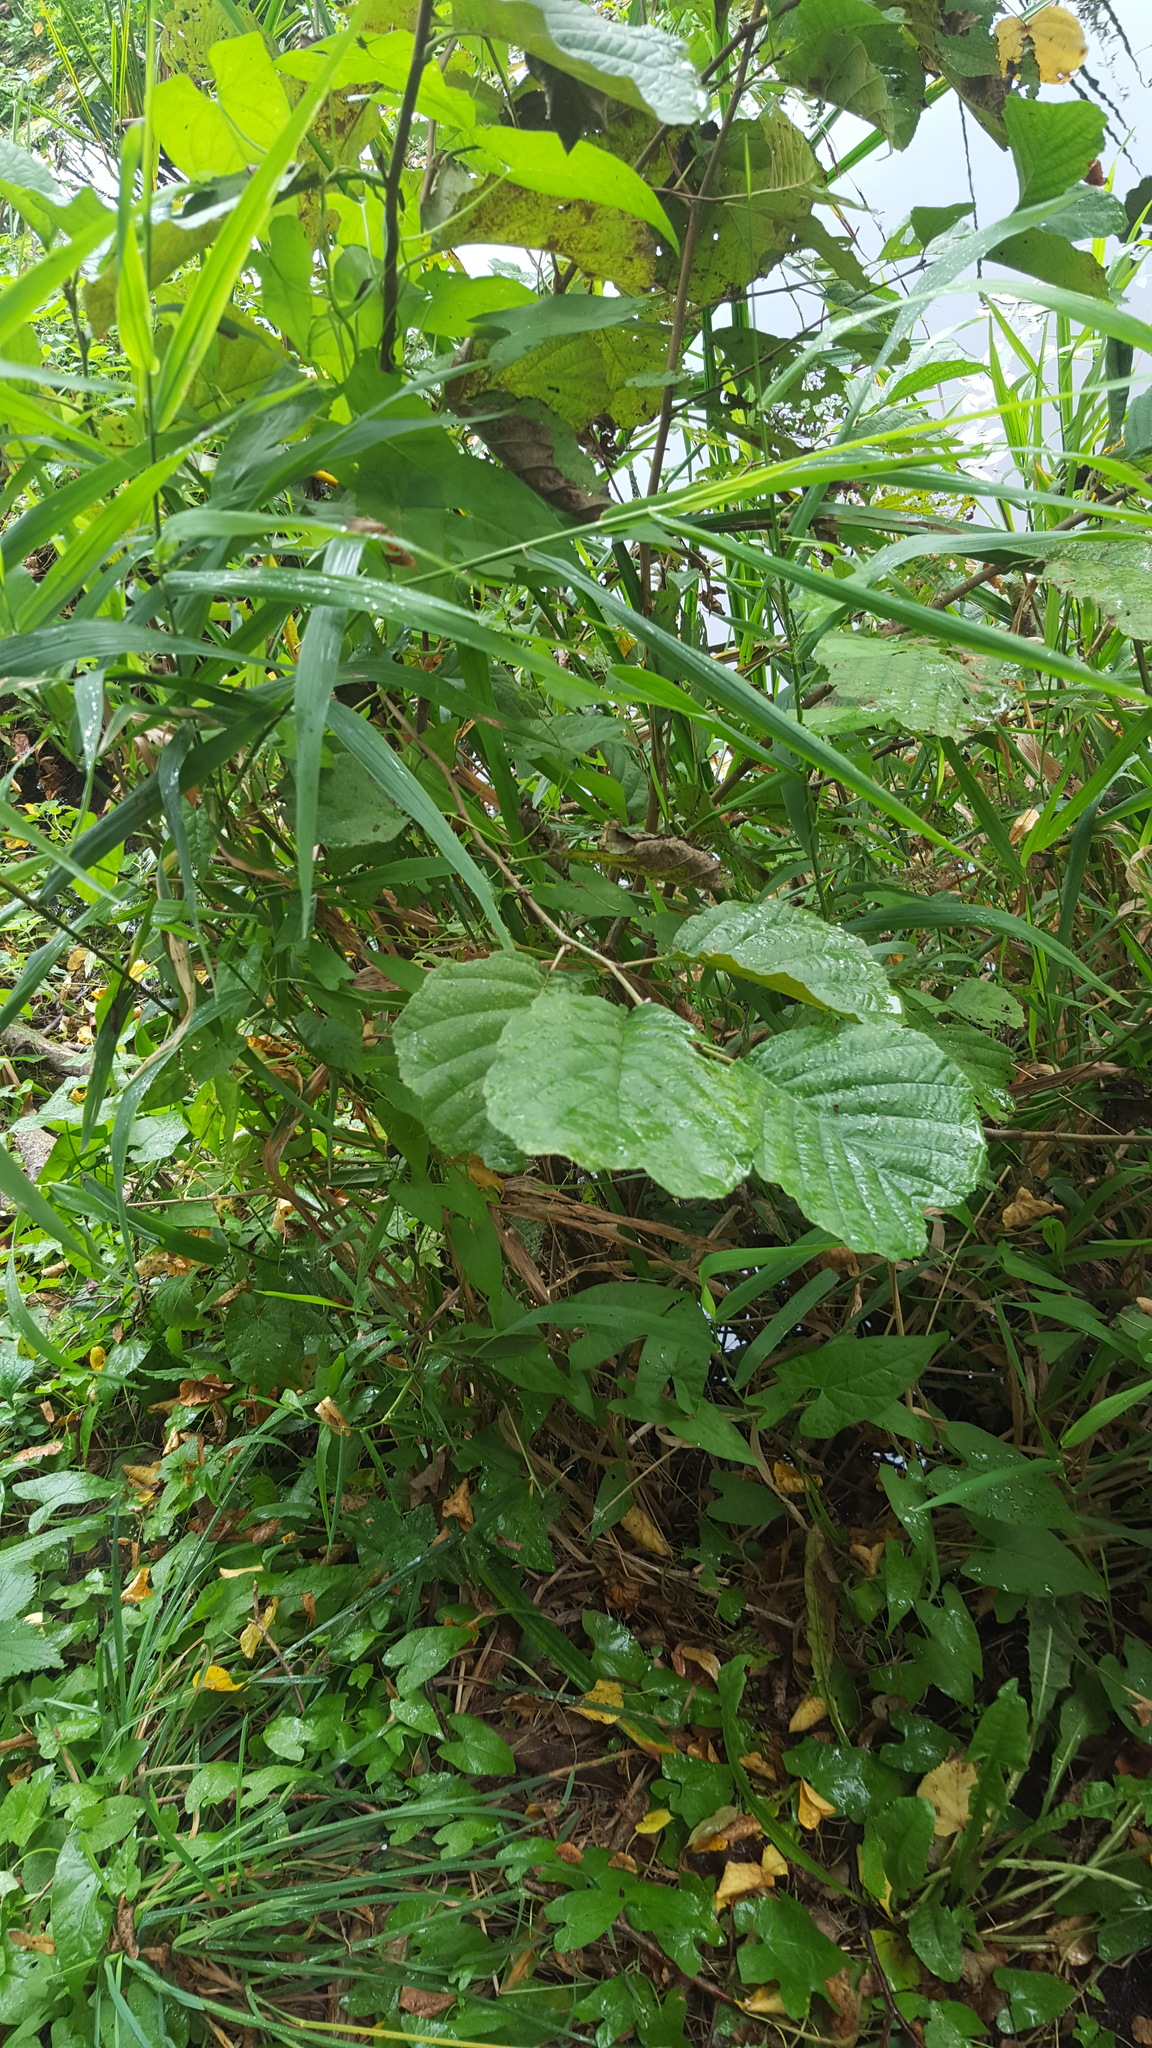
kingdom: Plantae
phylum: Tracheophyta
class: Magnoliopsida
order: Fagales
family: Betulaceae
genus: Corylus
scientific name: Corylus avellana
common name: European hazel
